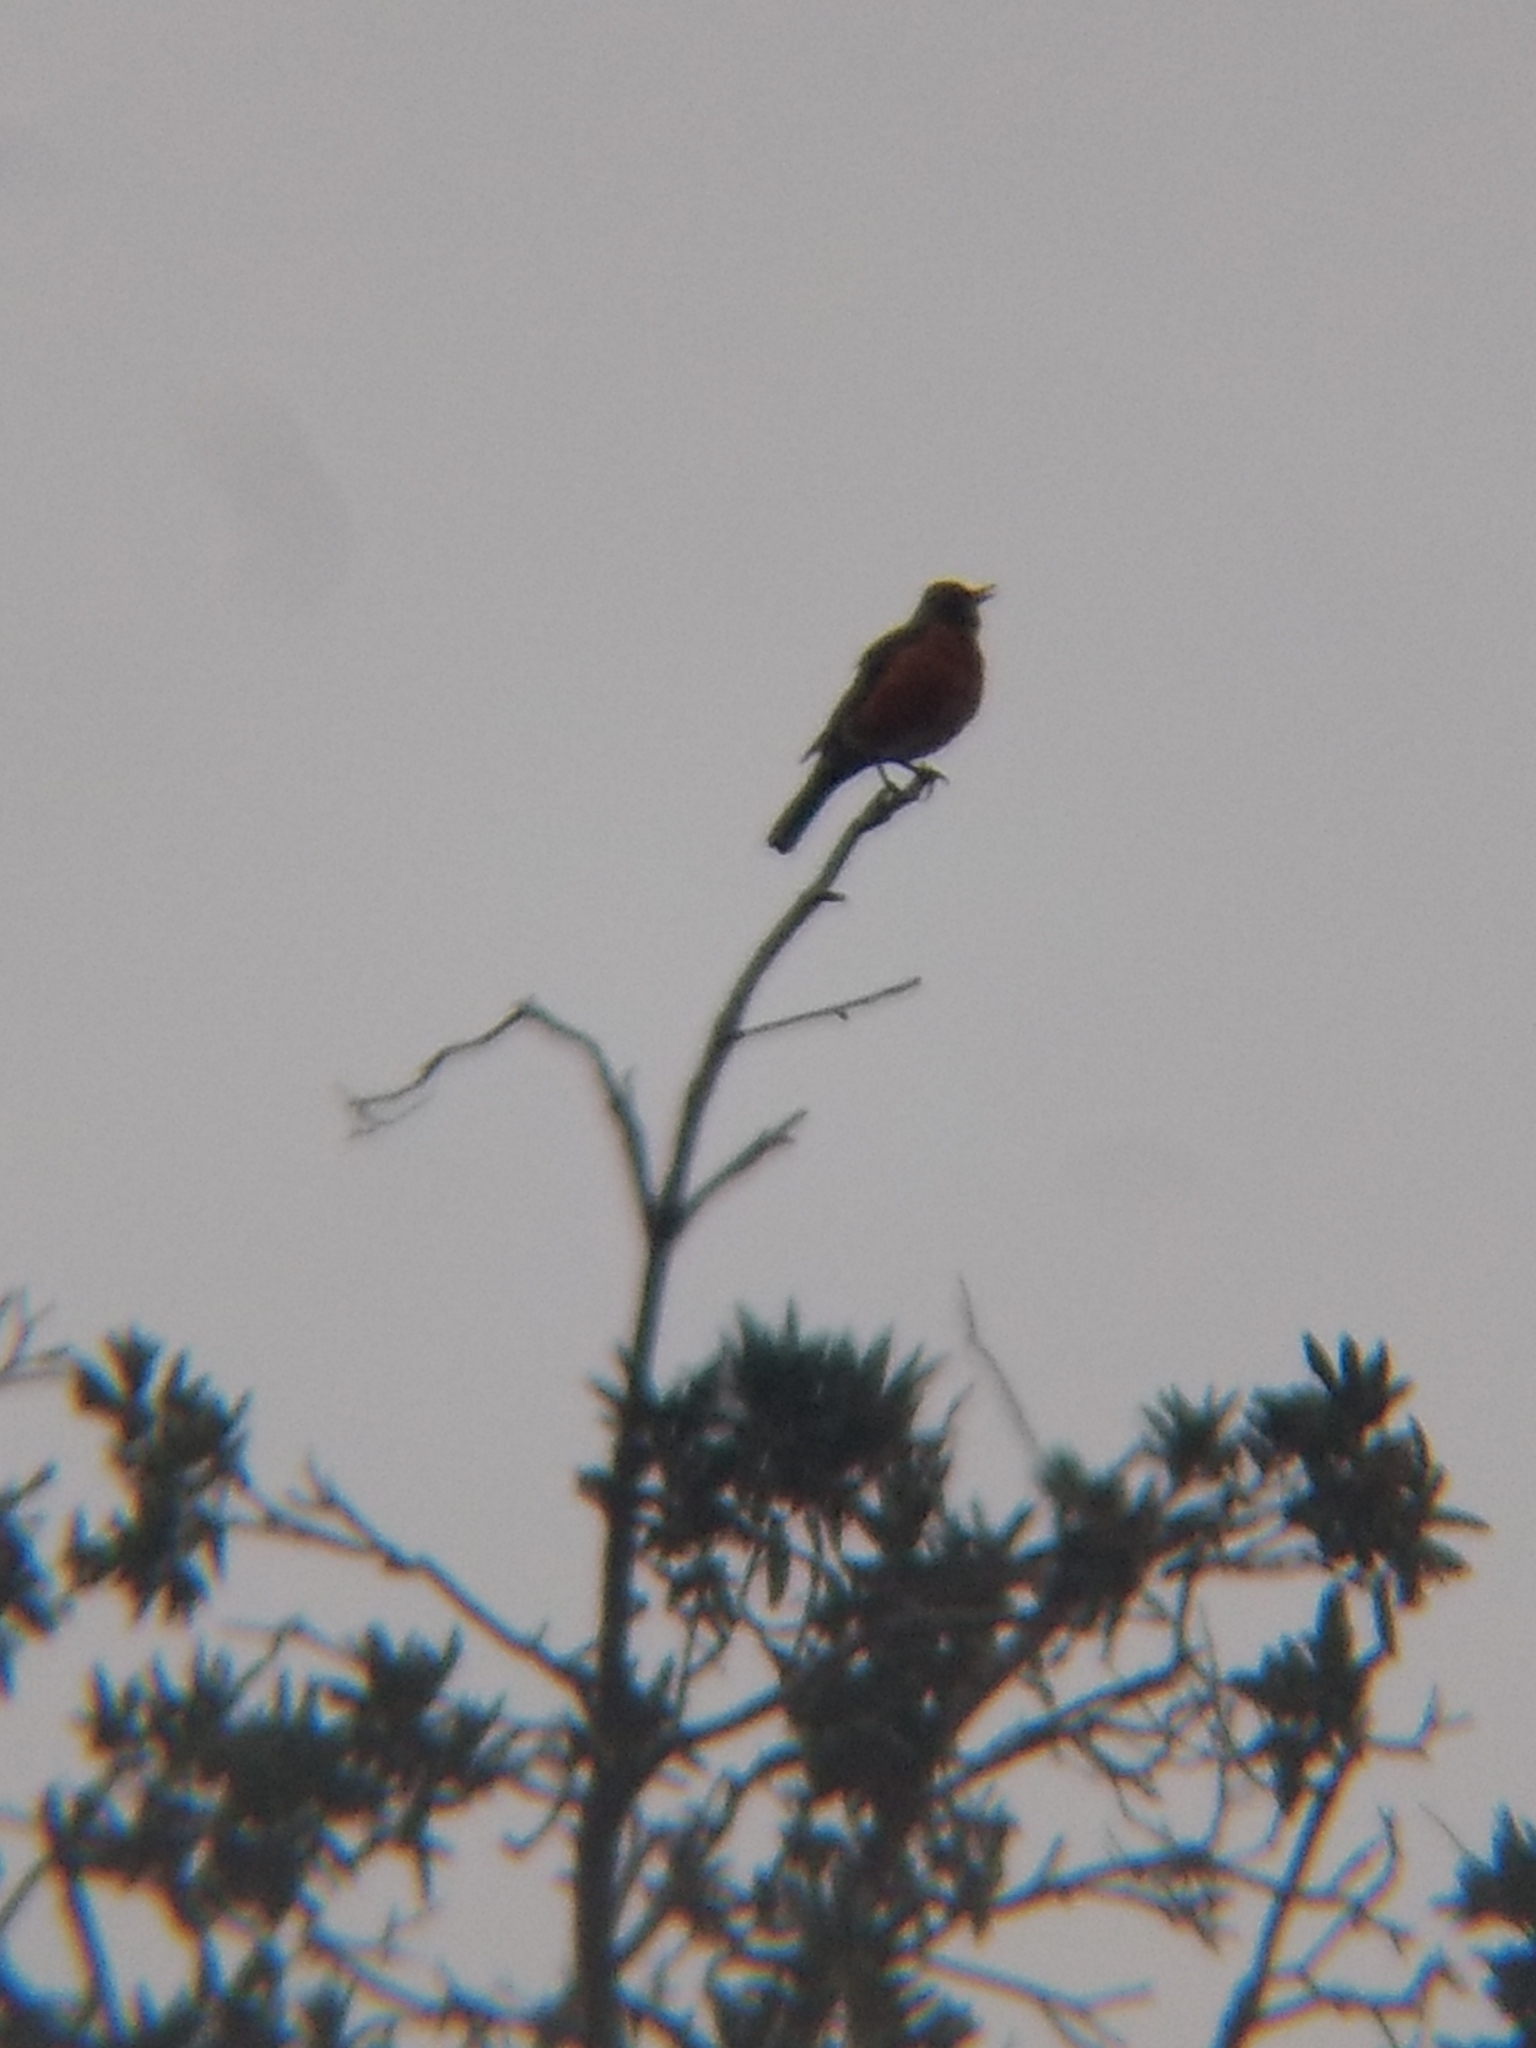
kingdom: Animalia
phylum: Chordata
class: Aves
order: Passeriformes
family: Turdidae
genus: Turdus
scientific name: Turdus migratorius
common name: American robin
